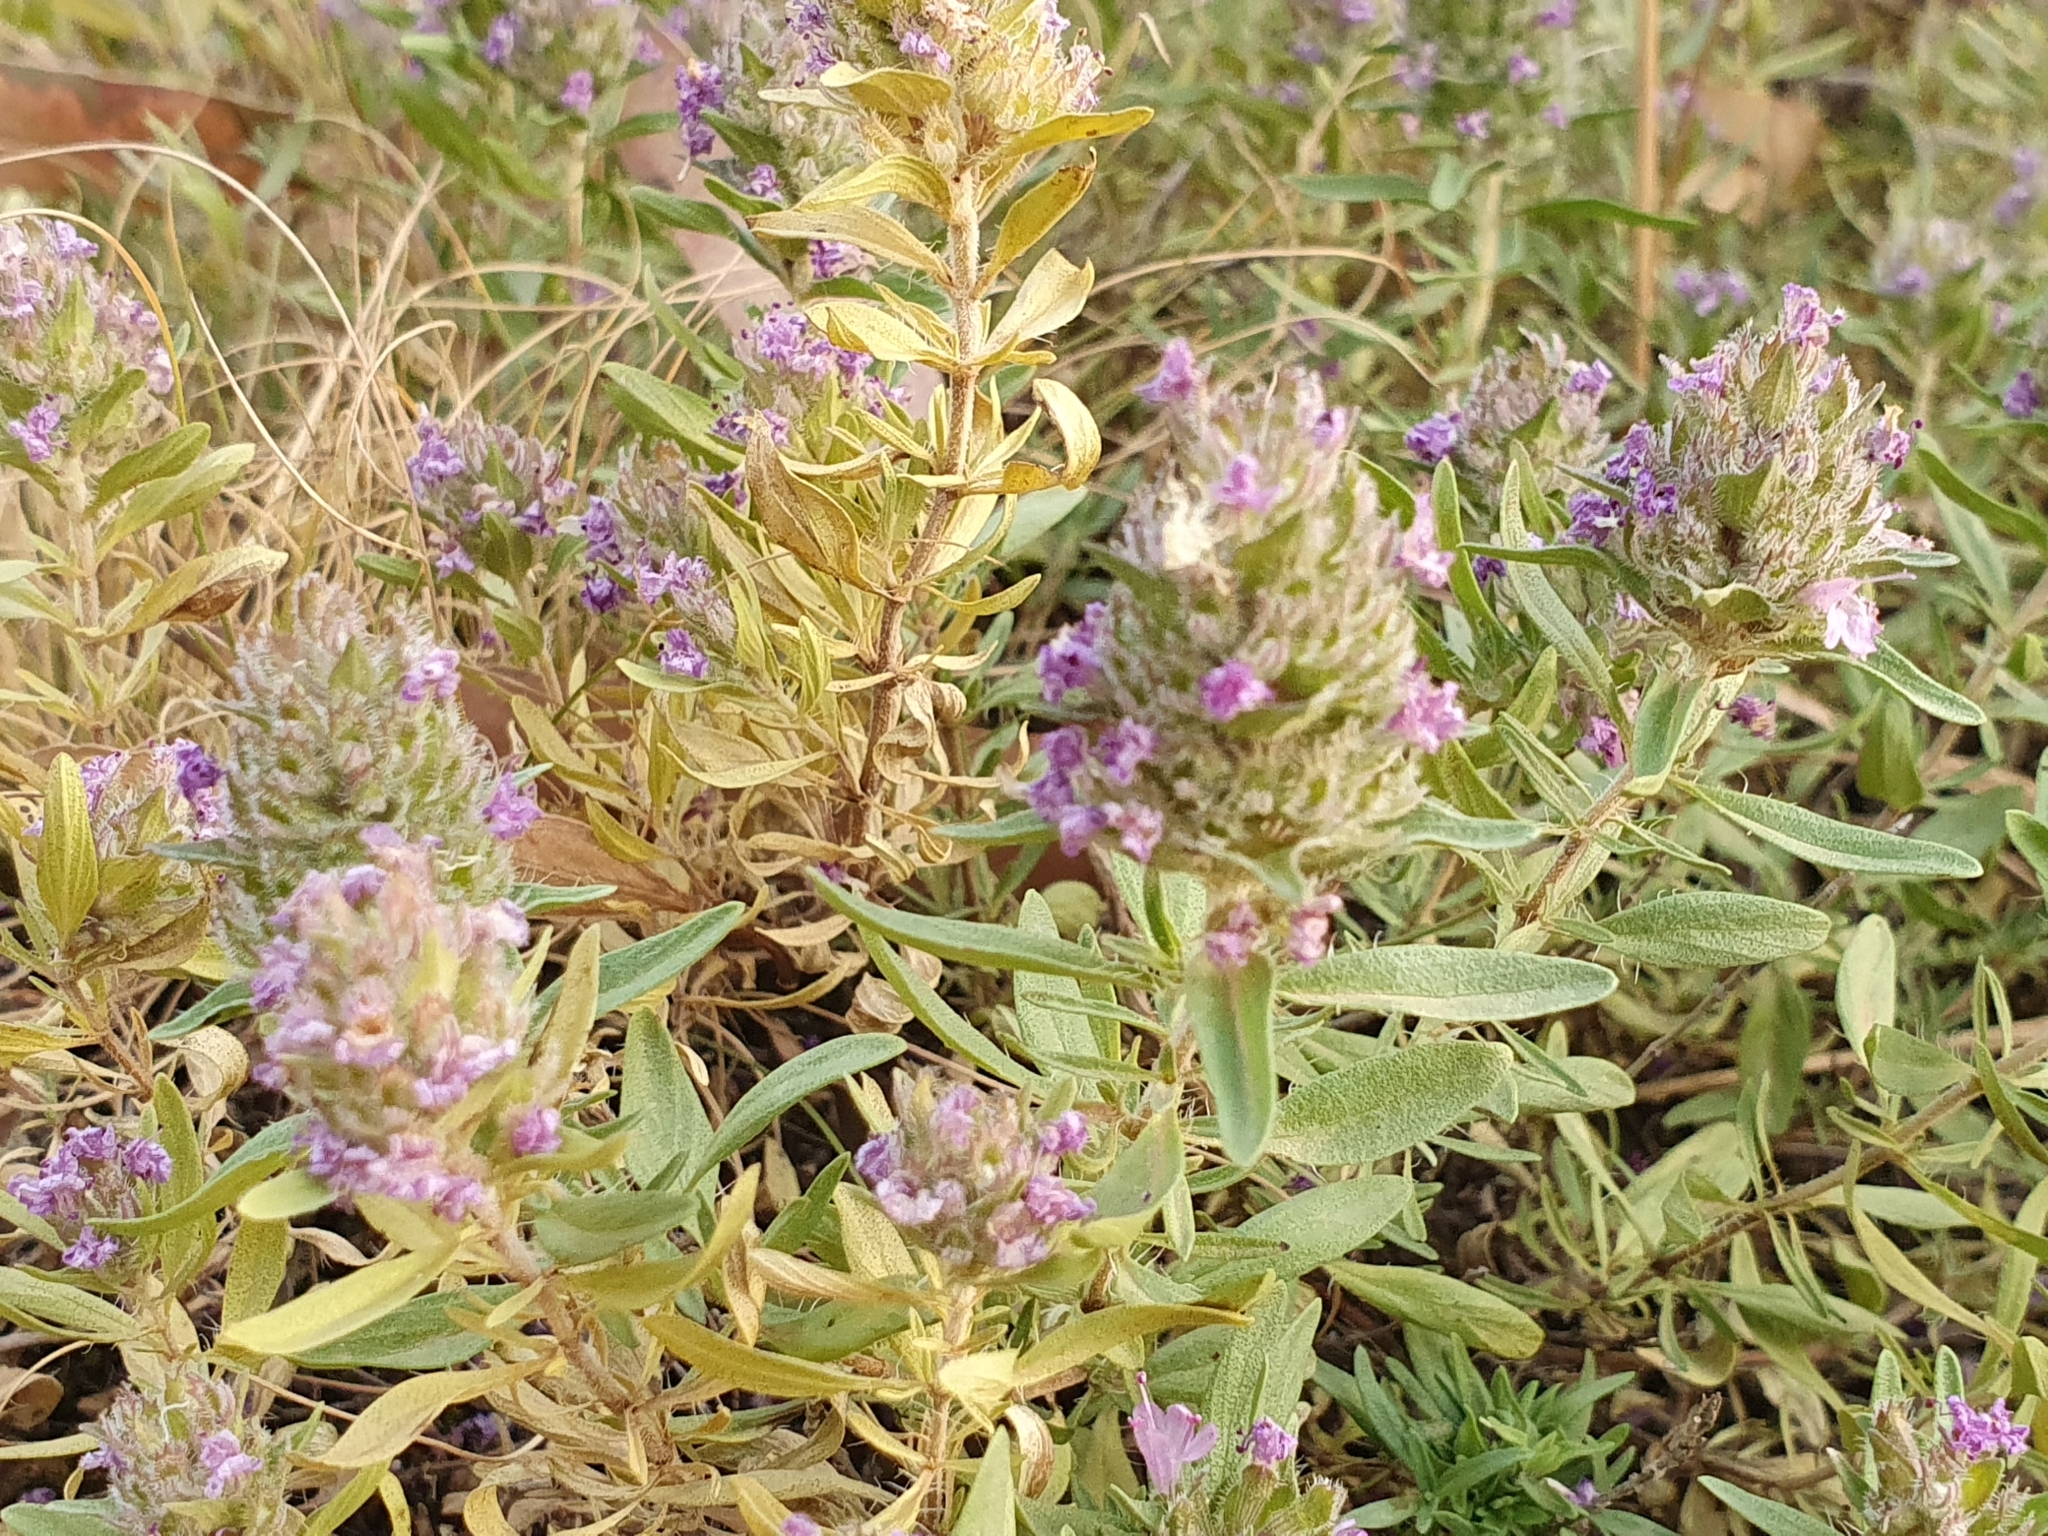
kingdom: Plantae
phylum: Tracheophyta
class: Magnoliopsida
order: Lamiales
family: Lamiaceae
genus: Thymus
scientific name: Thymus numidicus
